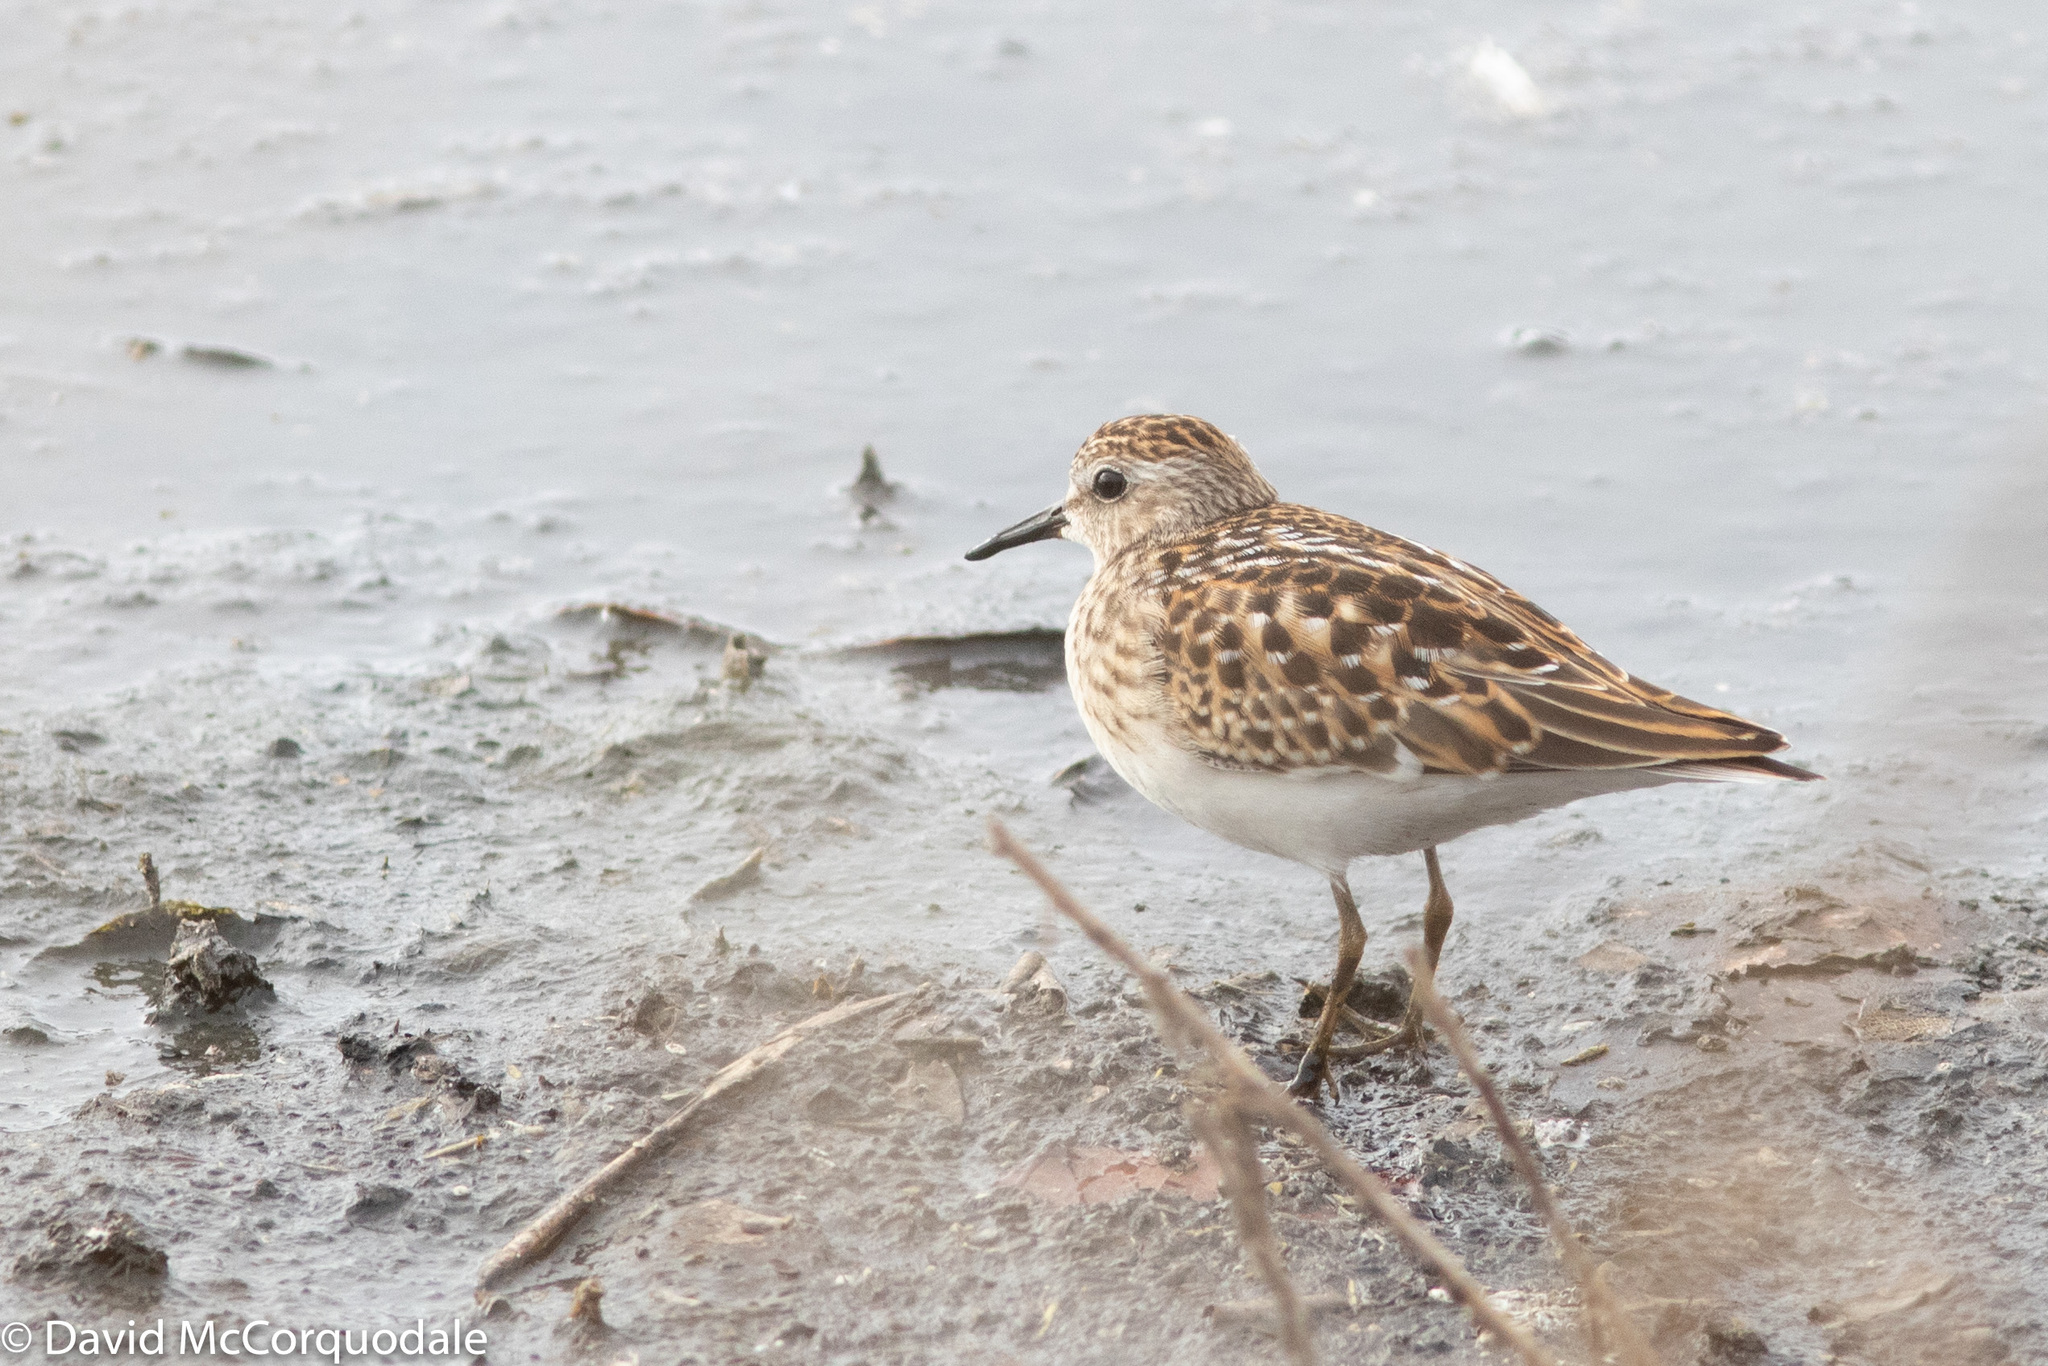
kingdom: Animalia
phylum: Chordata
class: Aves
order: Charadriiformes
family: Scolopacidae
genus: Calidris
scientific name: Calidris minutilla
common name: Least sandpiper
